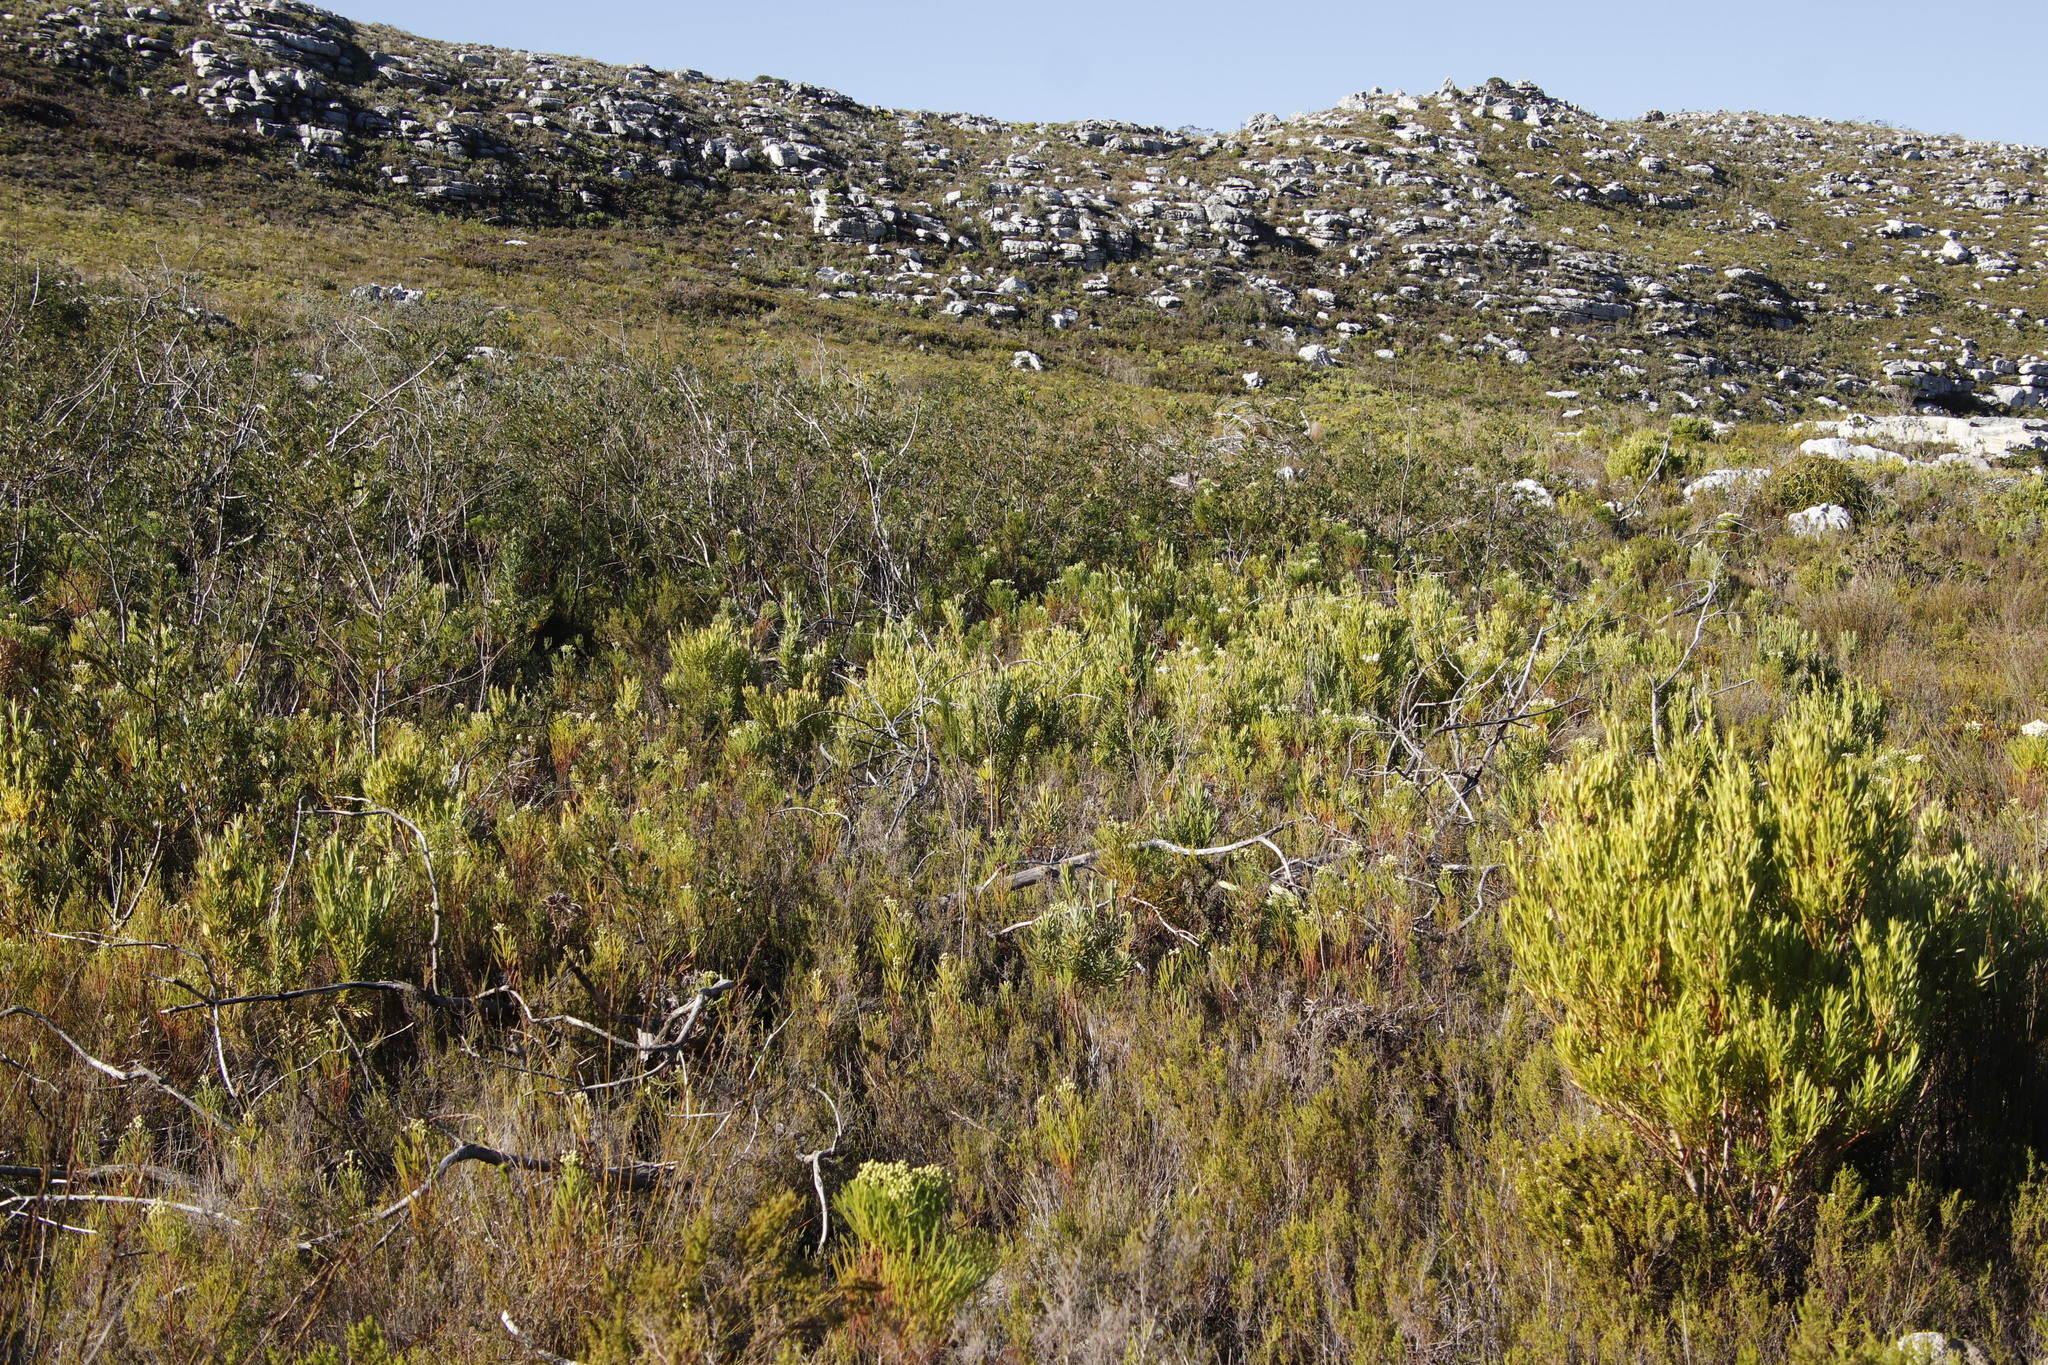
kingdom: Plantae
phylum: Tracheophyta
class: Magnoliopsida
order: Proteales
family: Proteaceae
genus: Leucadendron
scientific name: Leucadendron xanthoconus
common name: Sickle-leaf conebush
